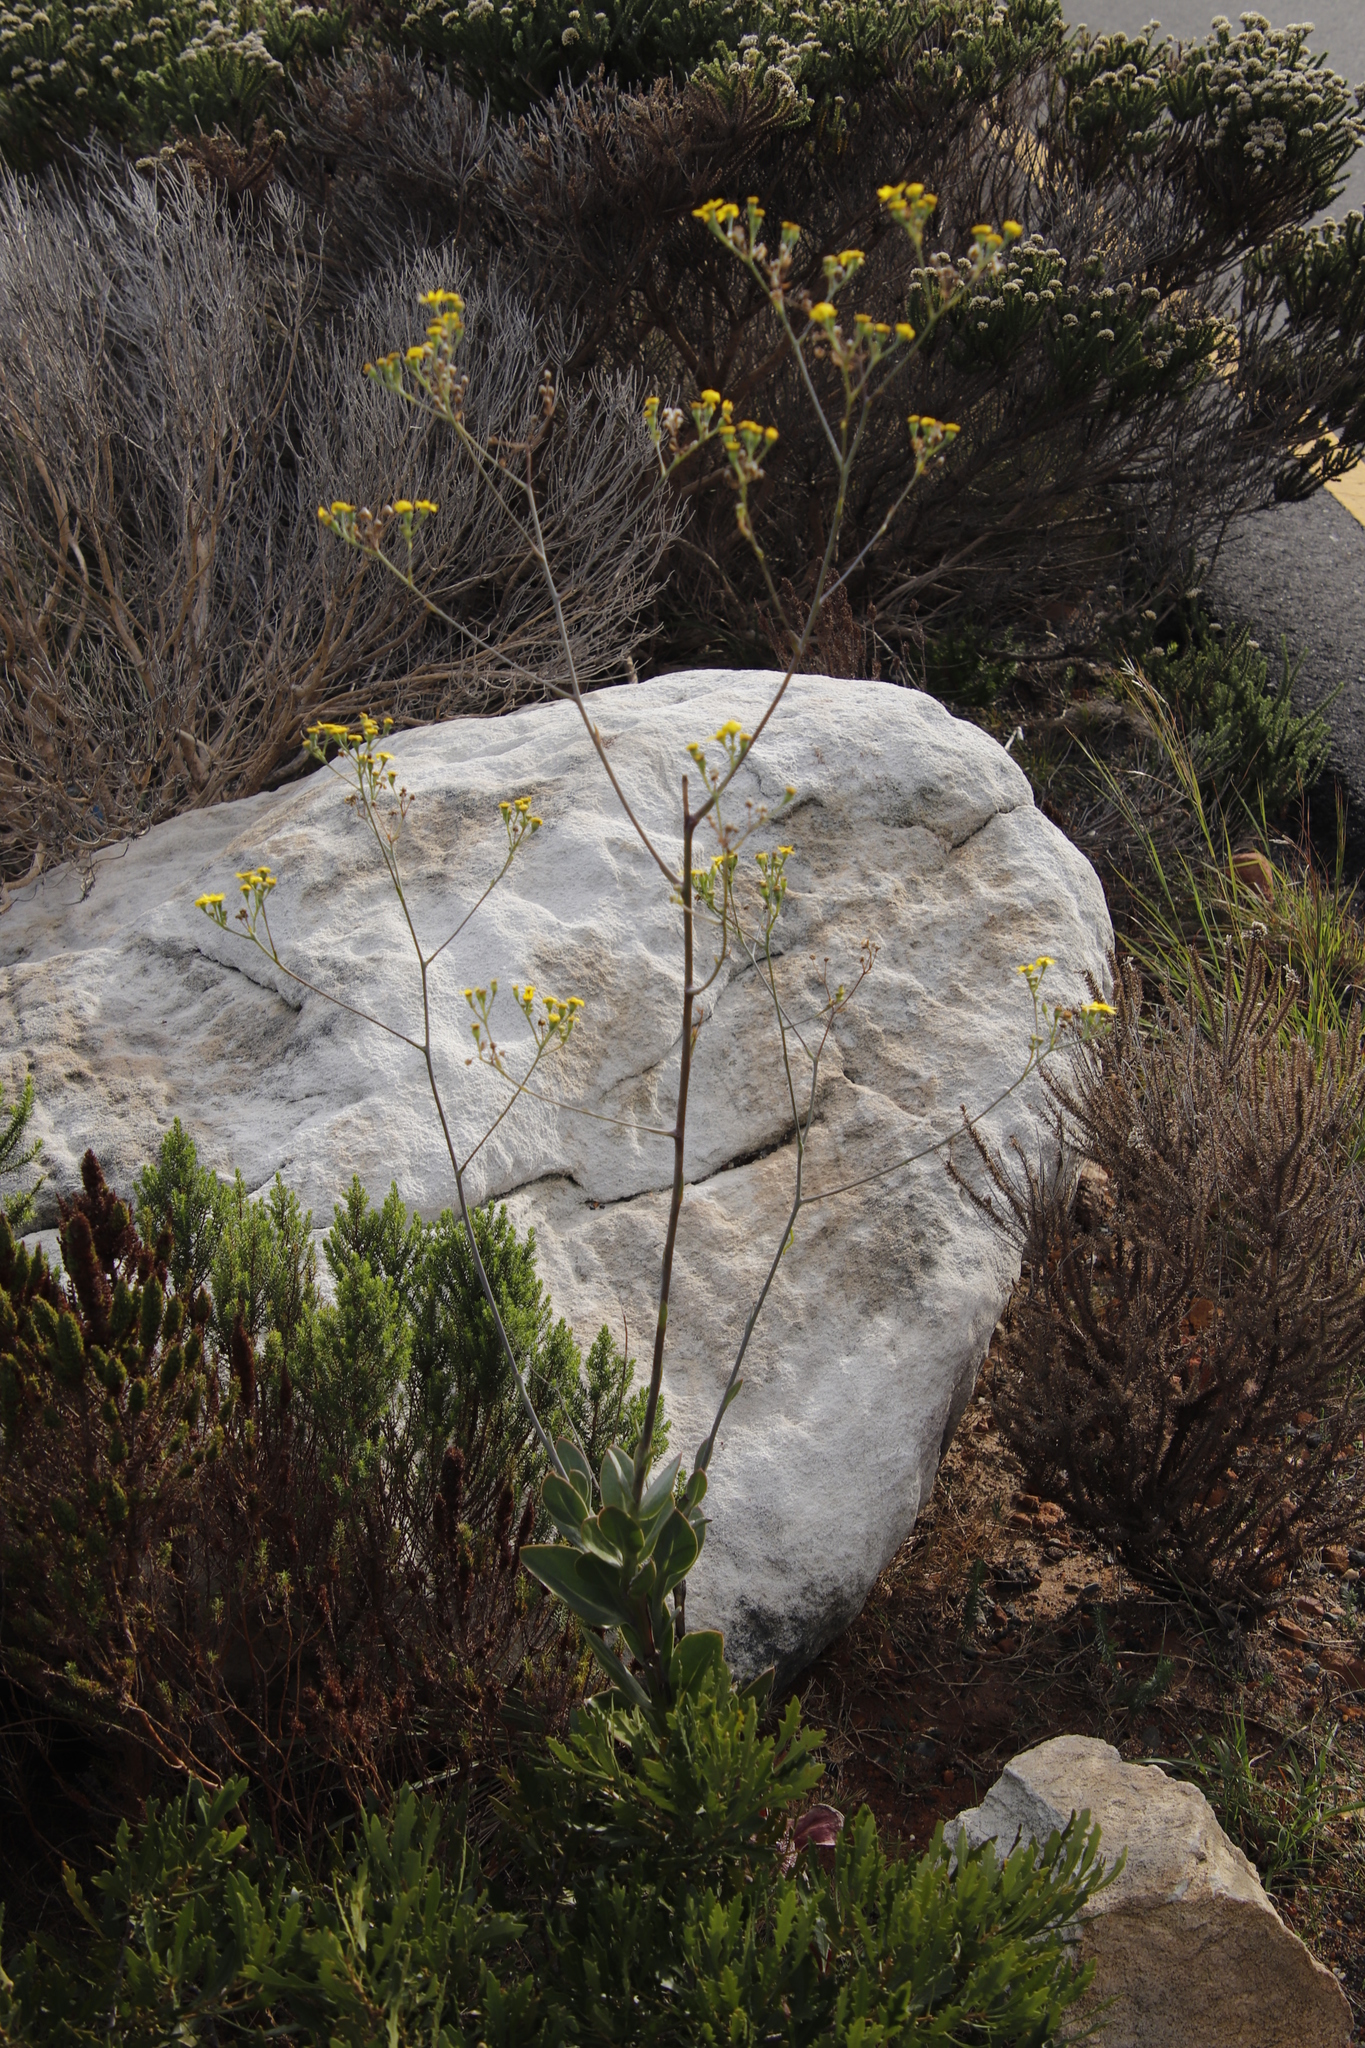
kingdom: Plantae
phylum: Tracheophyta
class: Magnoliopsida
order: Asterales
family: Asteraceae
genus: Othonna
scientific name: Othonna quinquedentata
